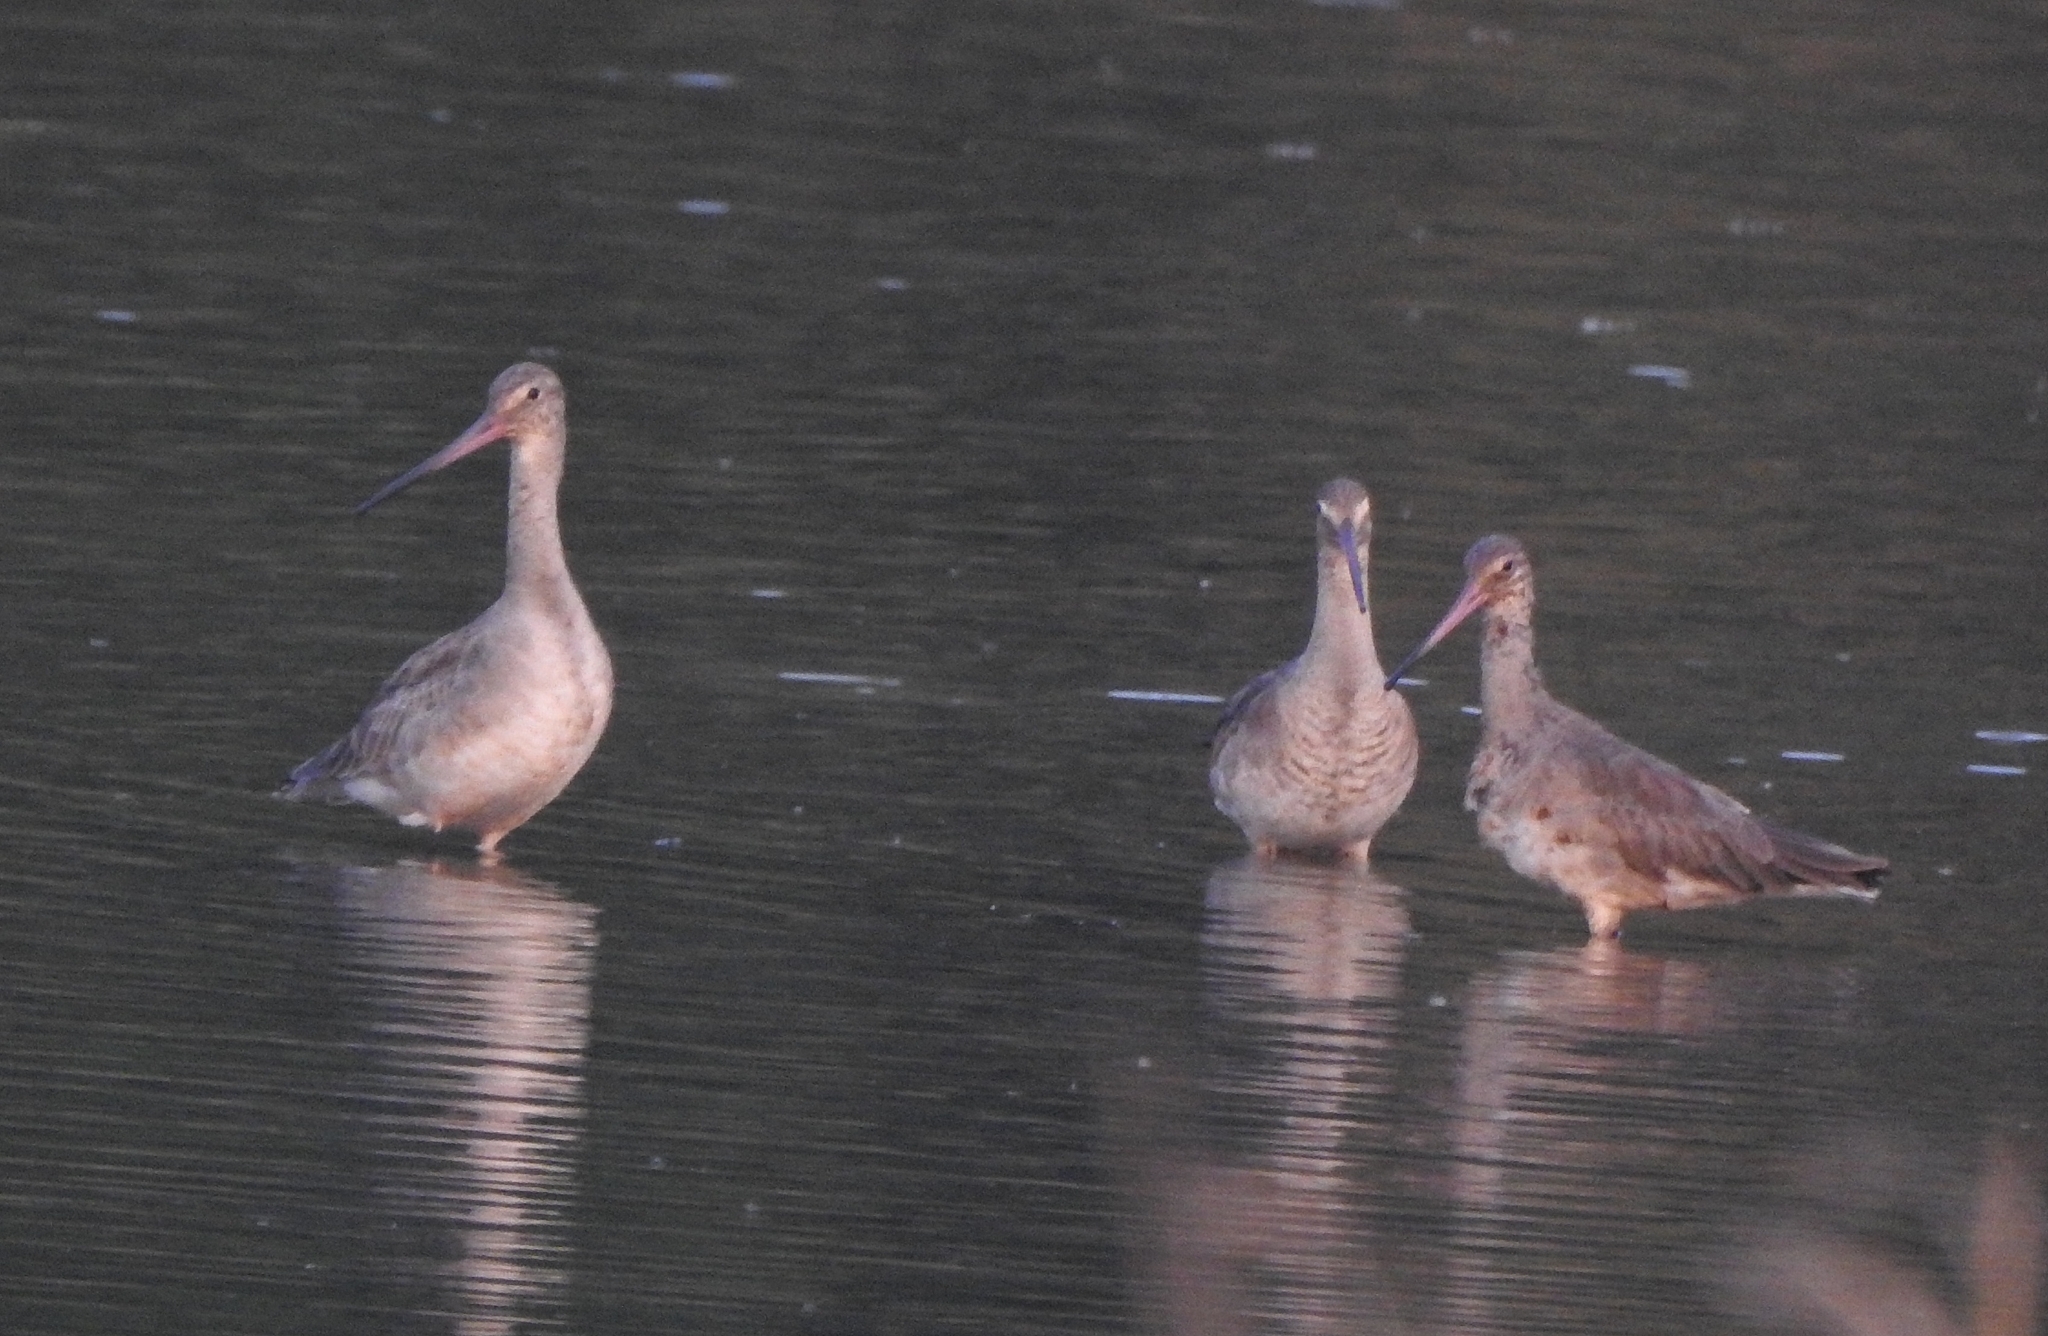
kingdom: Animalia
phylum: Chordata
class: Aves
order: Charadriiformes
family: Scolopacidae
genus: Limosa
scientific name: Limosa limosa
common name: Black-tailed godwit
